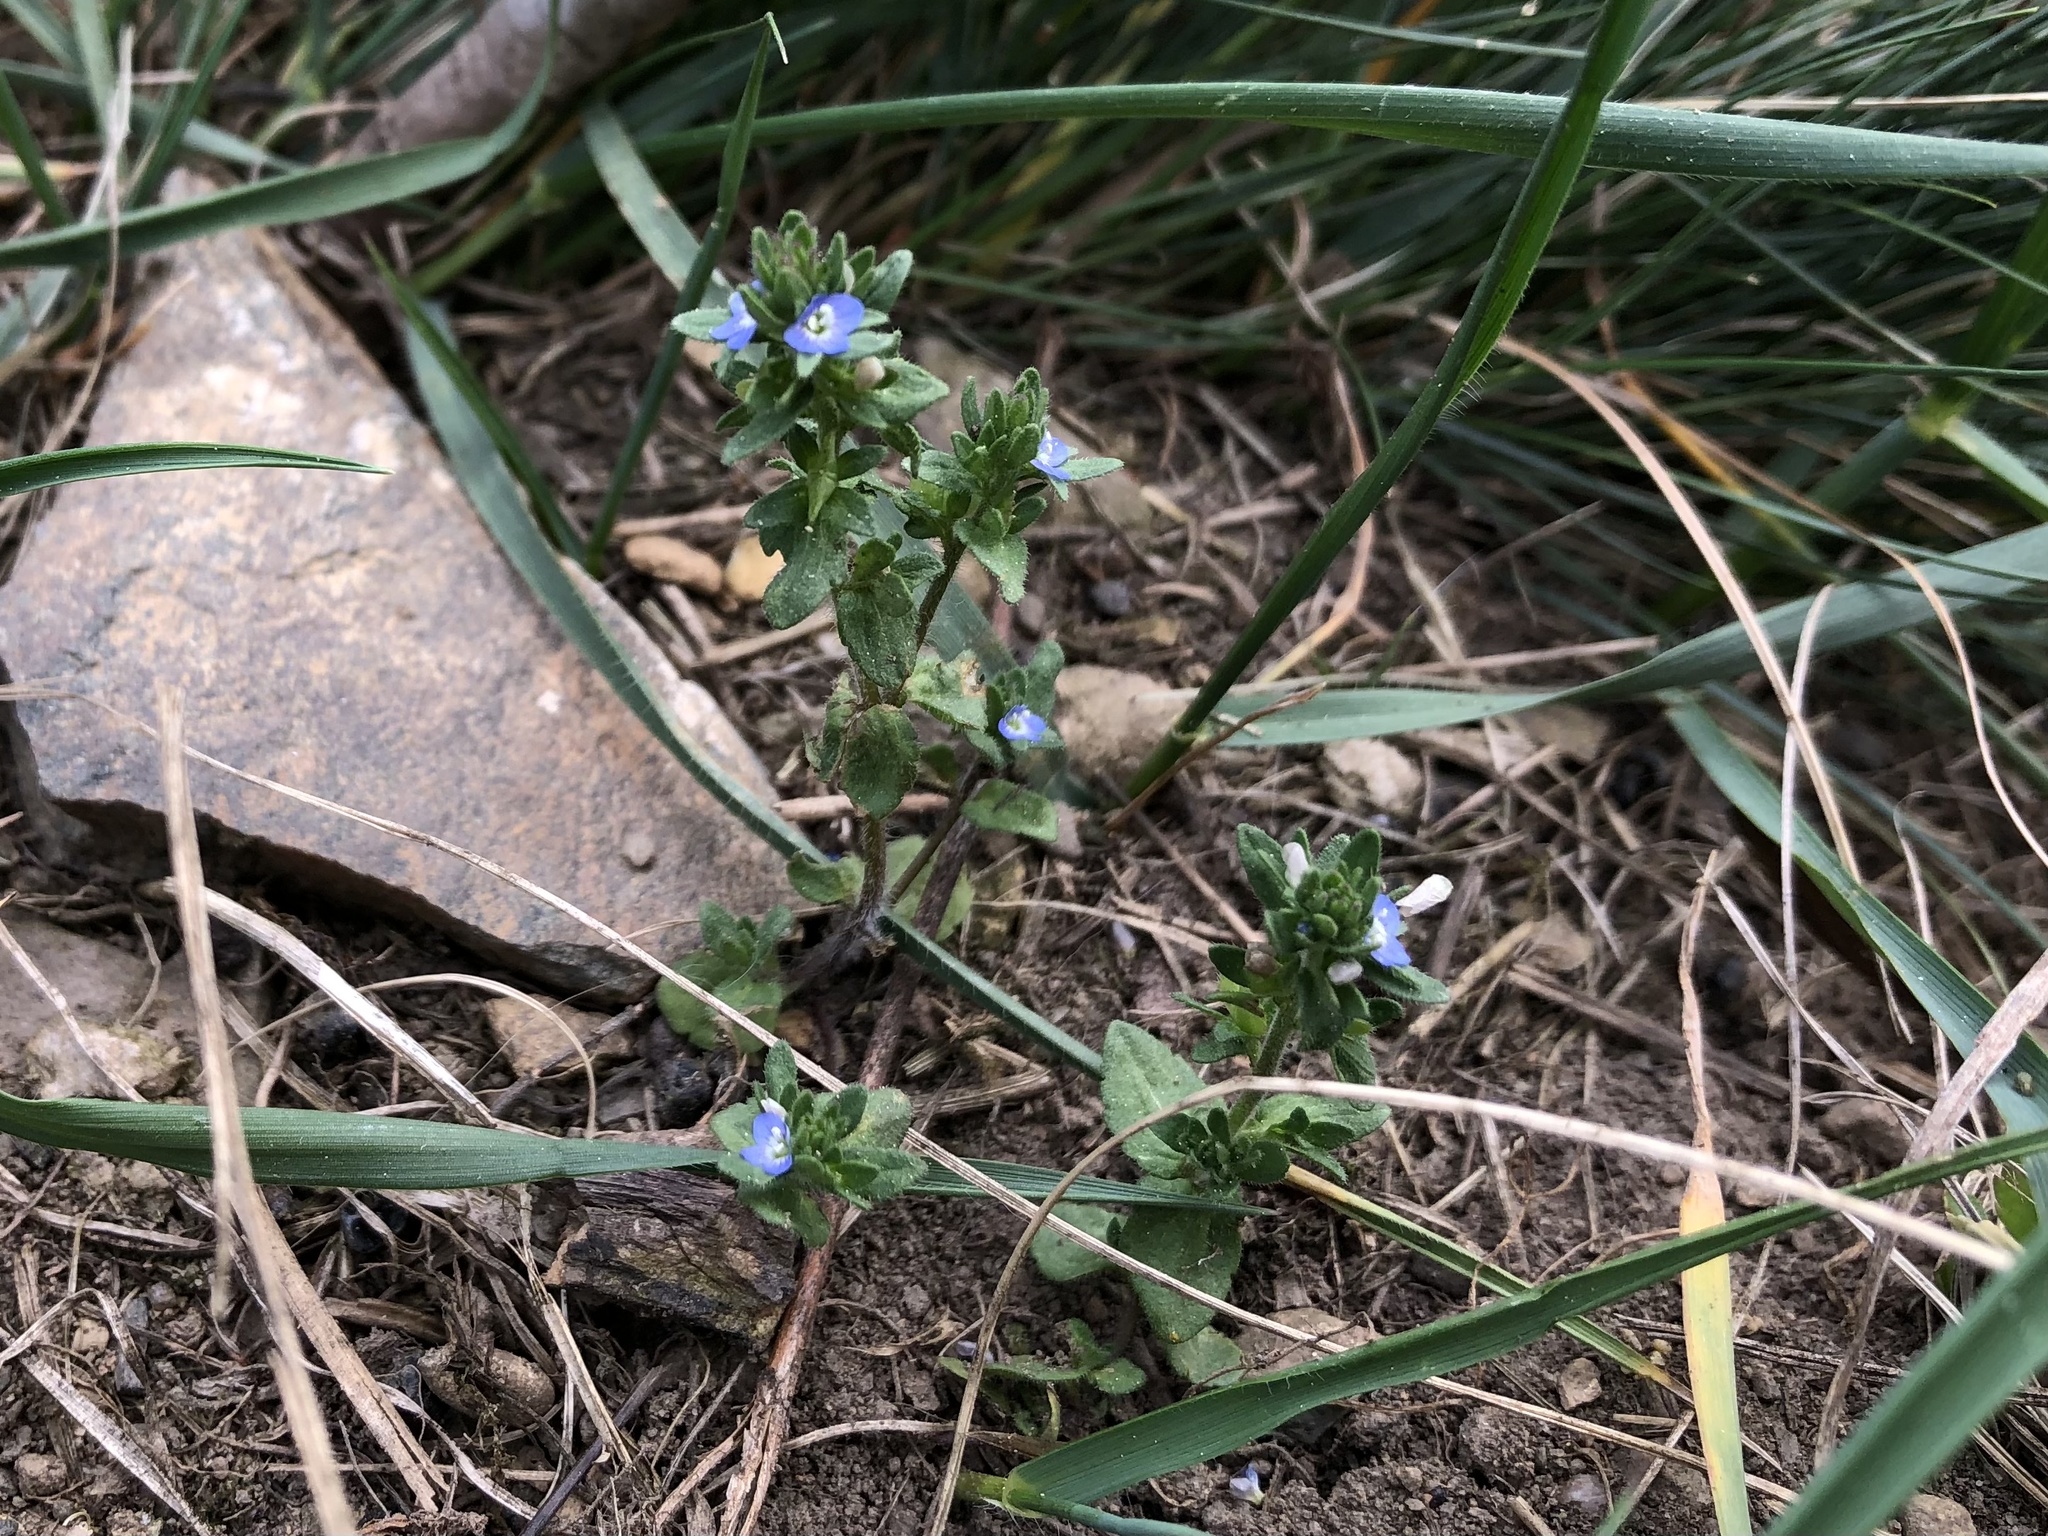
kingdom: Plantae
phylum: Tracheophyta
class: Magnoliopsida
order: Lamiales
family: Plantaginaceae
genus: Veronica
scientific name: Veronica arvensis
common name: Corn speedwell
